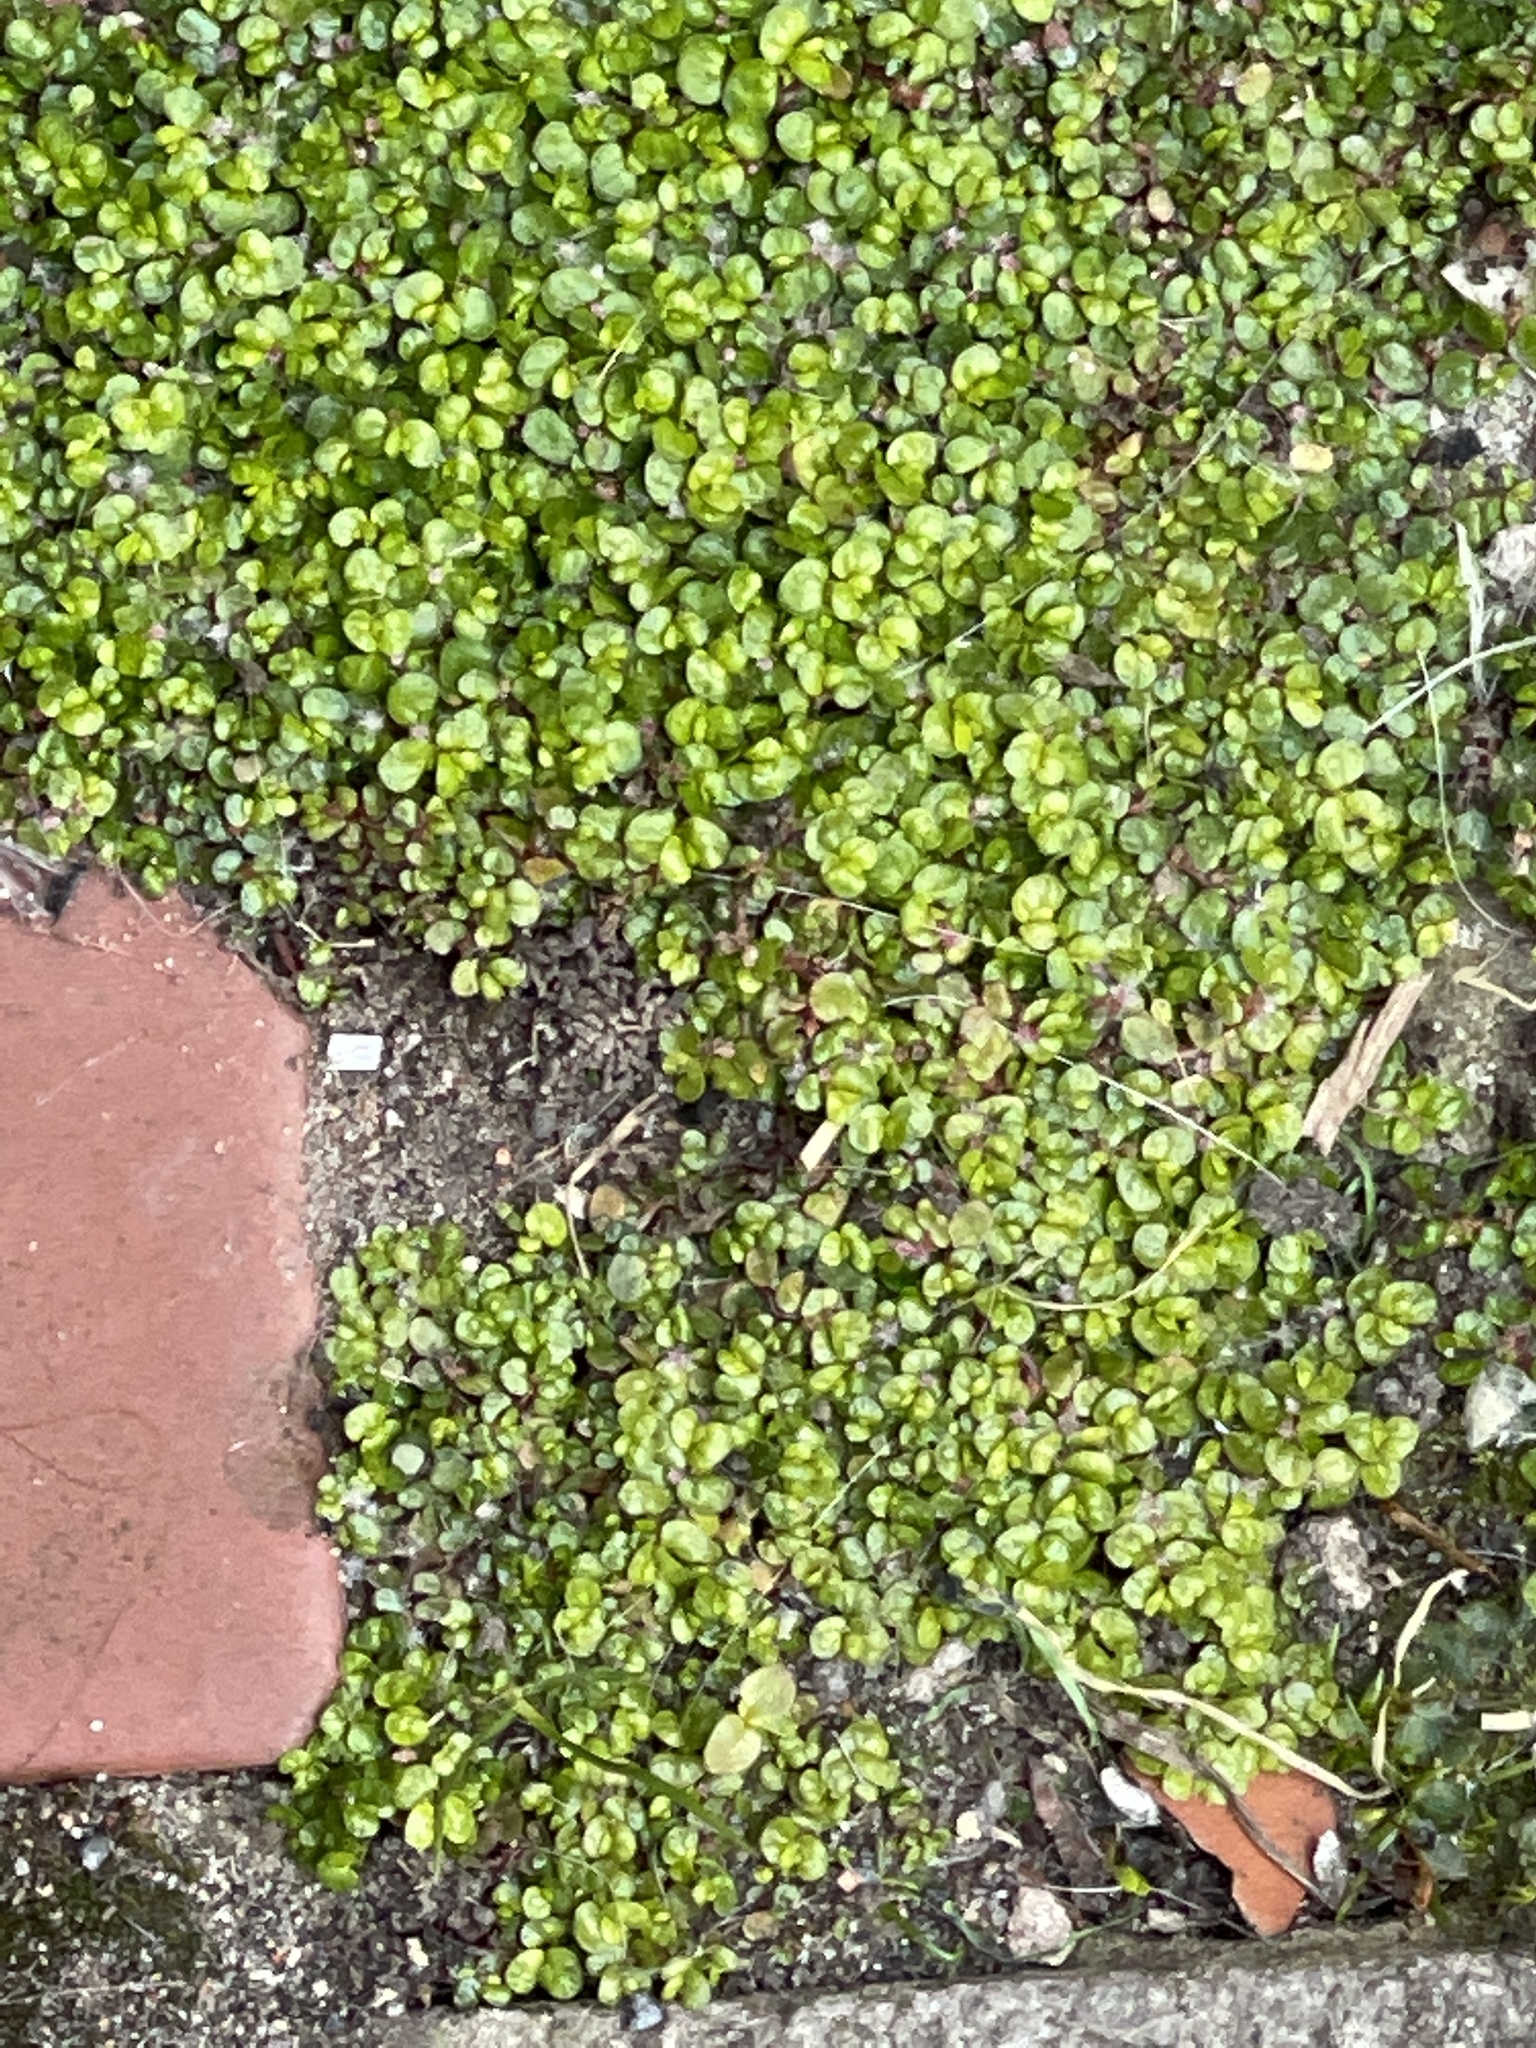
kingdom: Plantae
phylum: Tracheophyta
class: Magnoliopsida
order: Rosales
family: Urticaceae
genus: Soleirolia
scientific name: Soleirolia soleirolii
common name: Mind-your-own-business
